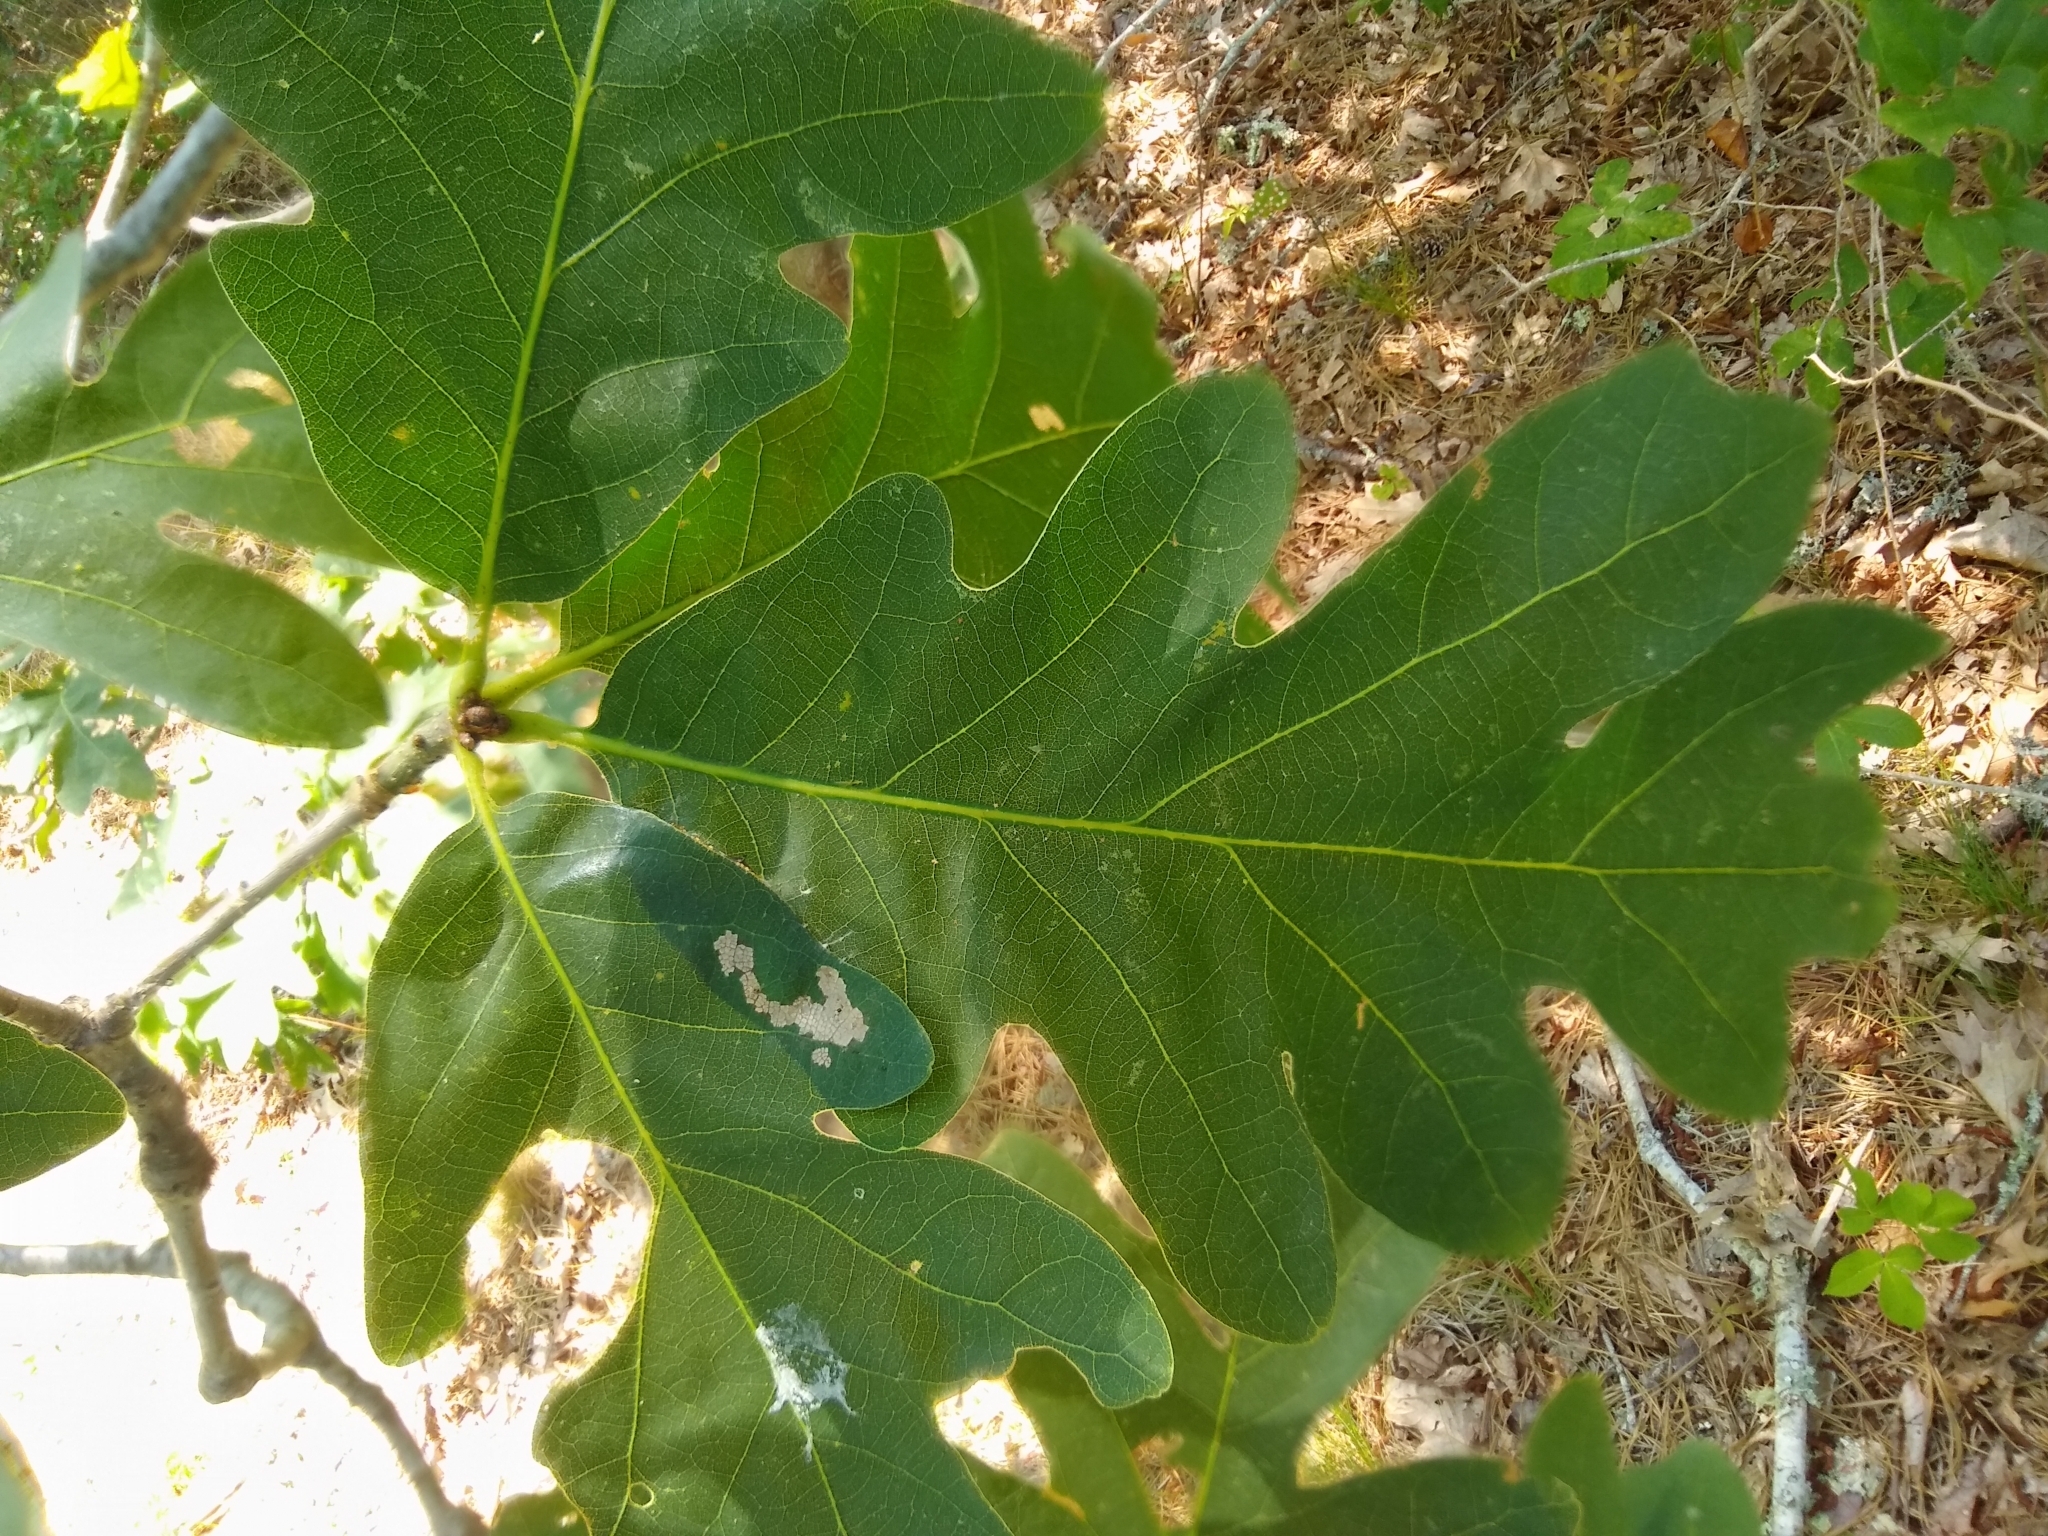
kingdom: Plantae
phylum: Tracheophyta
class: Magnoliopsida
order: Fagales
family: Fagaceae
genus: Quercus
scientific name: Quercus alba
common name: White oak
